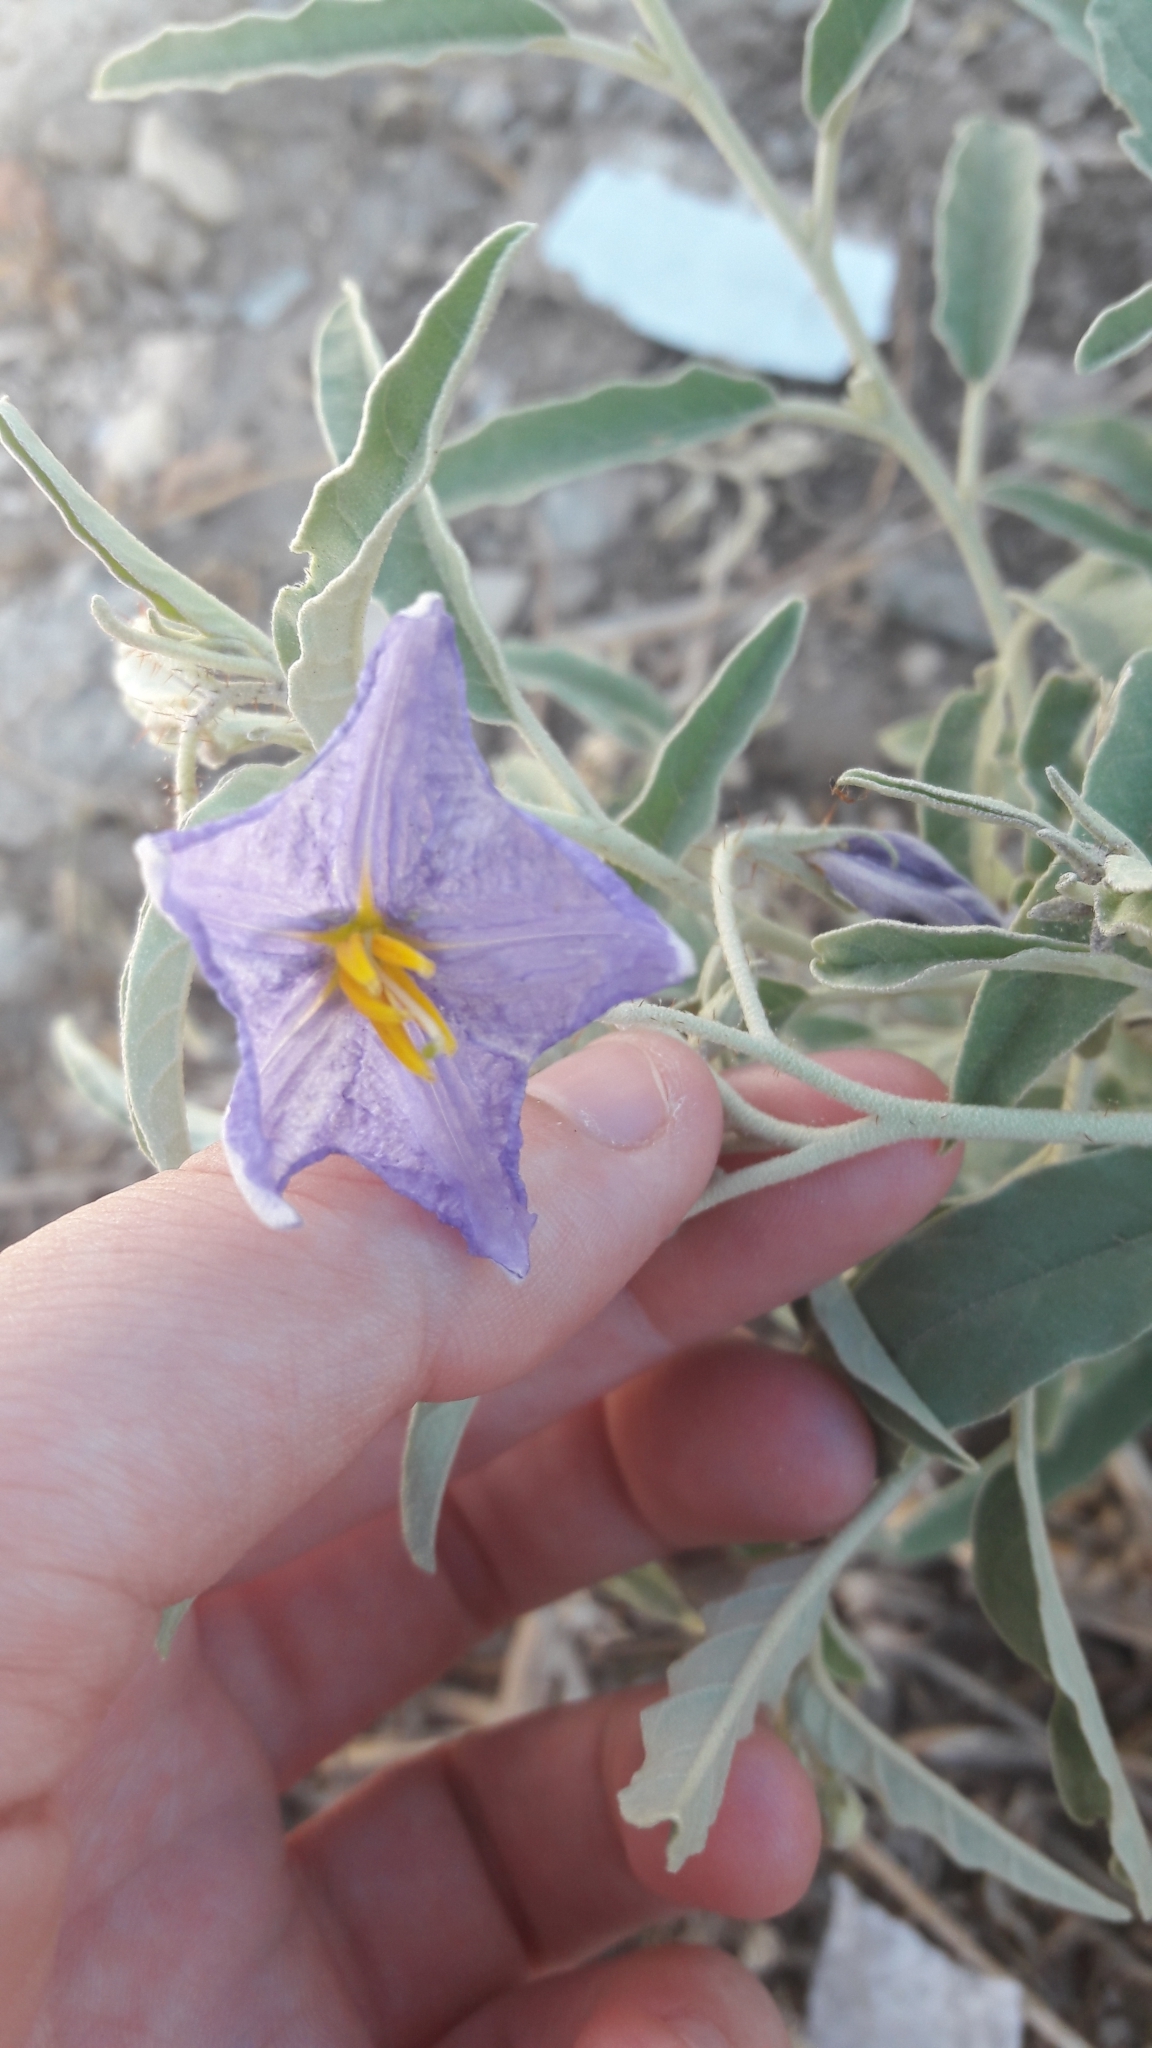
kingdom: Plantae
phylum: Tracheophyta
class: Magnoliopsida
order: Solanales
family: Solanaceae
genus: Solanum
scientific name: Solanum elaeagnifolium
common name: Silverleaf nightshade
